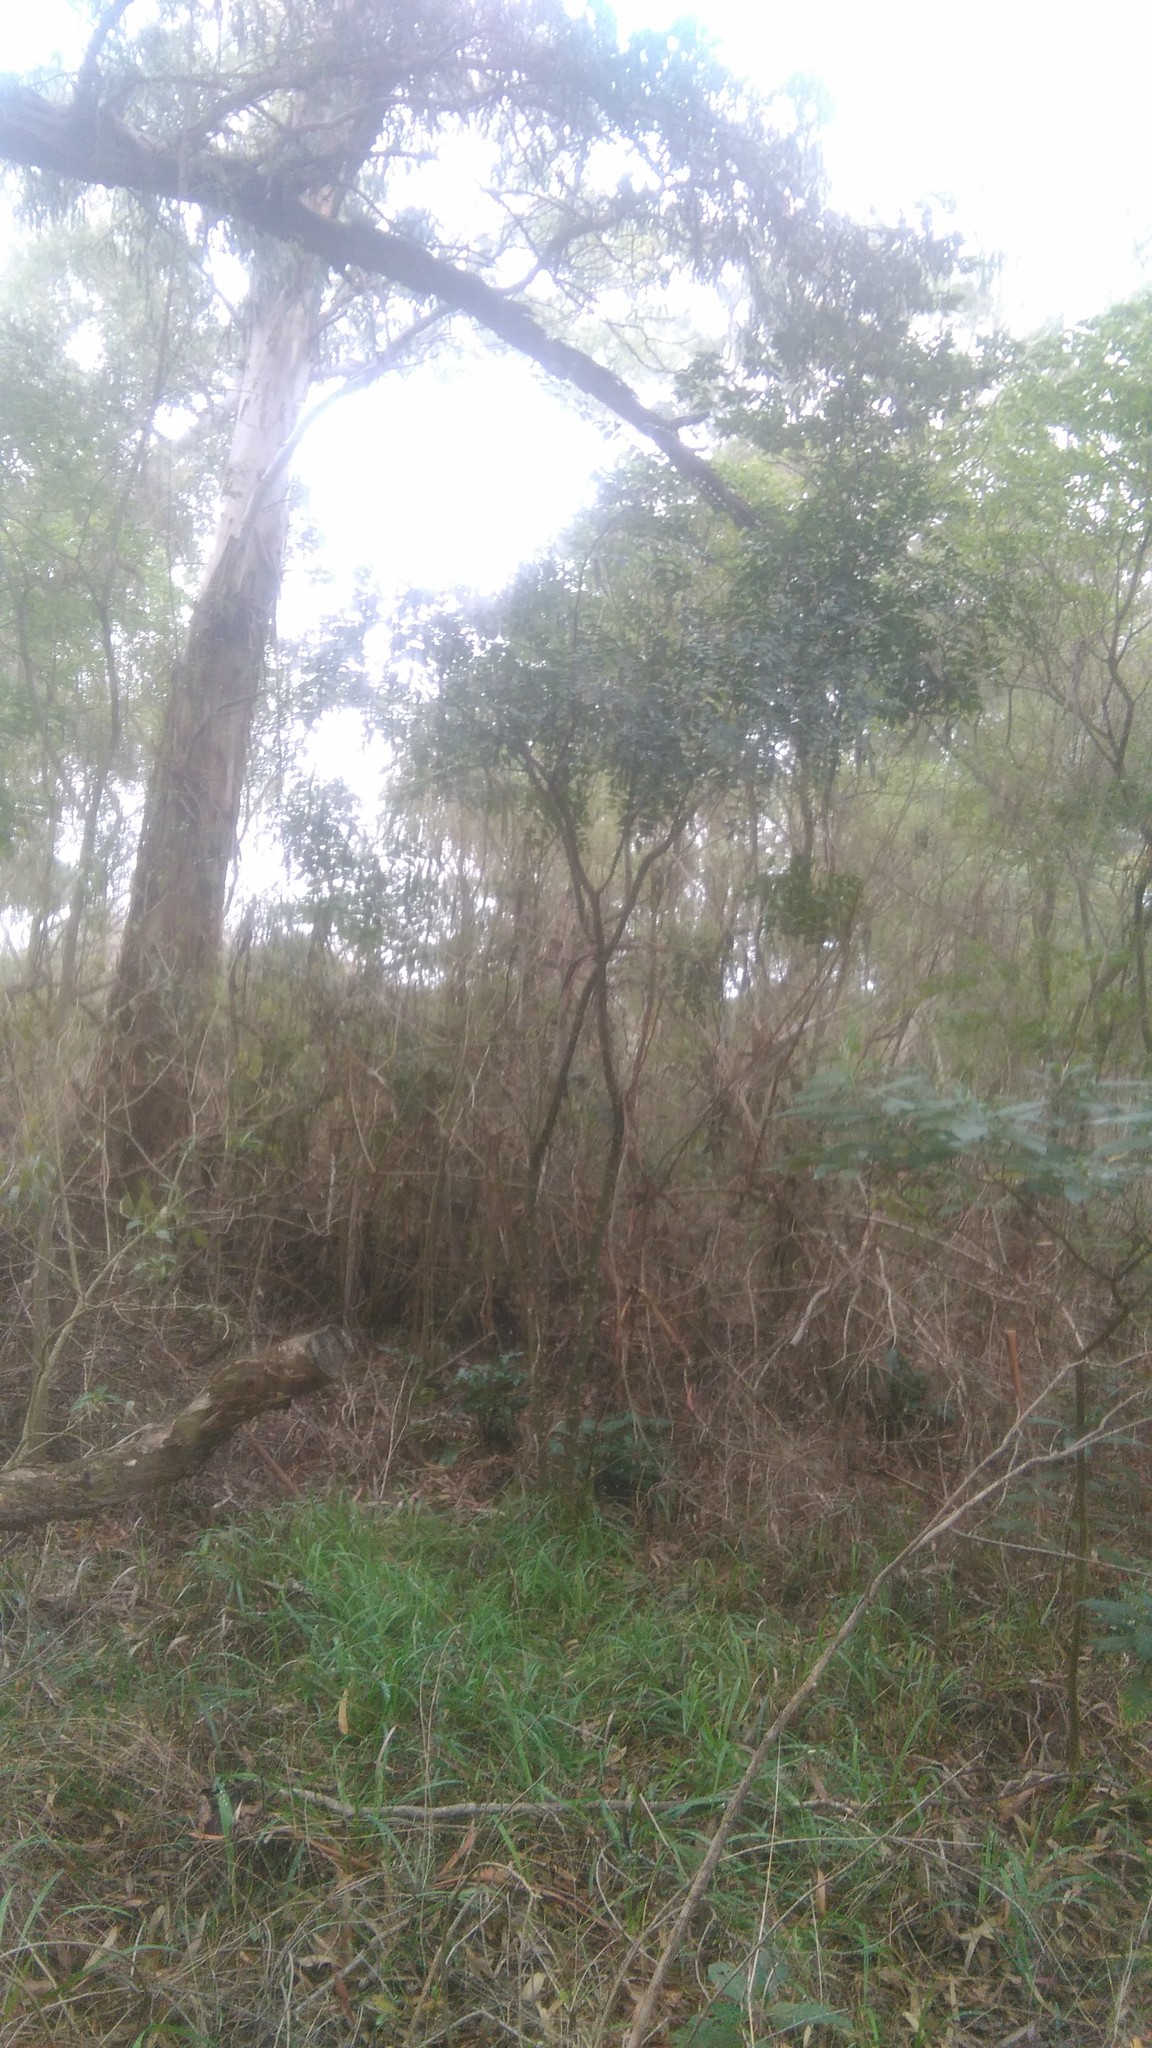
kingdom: Plantae
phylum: Tracheophyta
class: Magnoliopsida
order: Sapindales
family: Rutaceae
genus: Zanthoxylum
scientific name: Zanthoxylum rhoifolium
